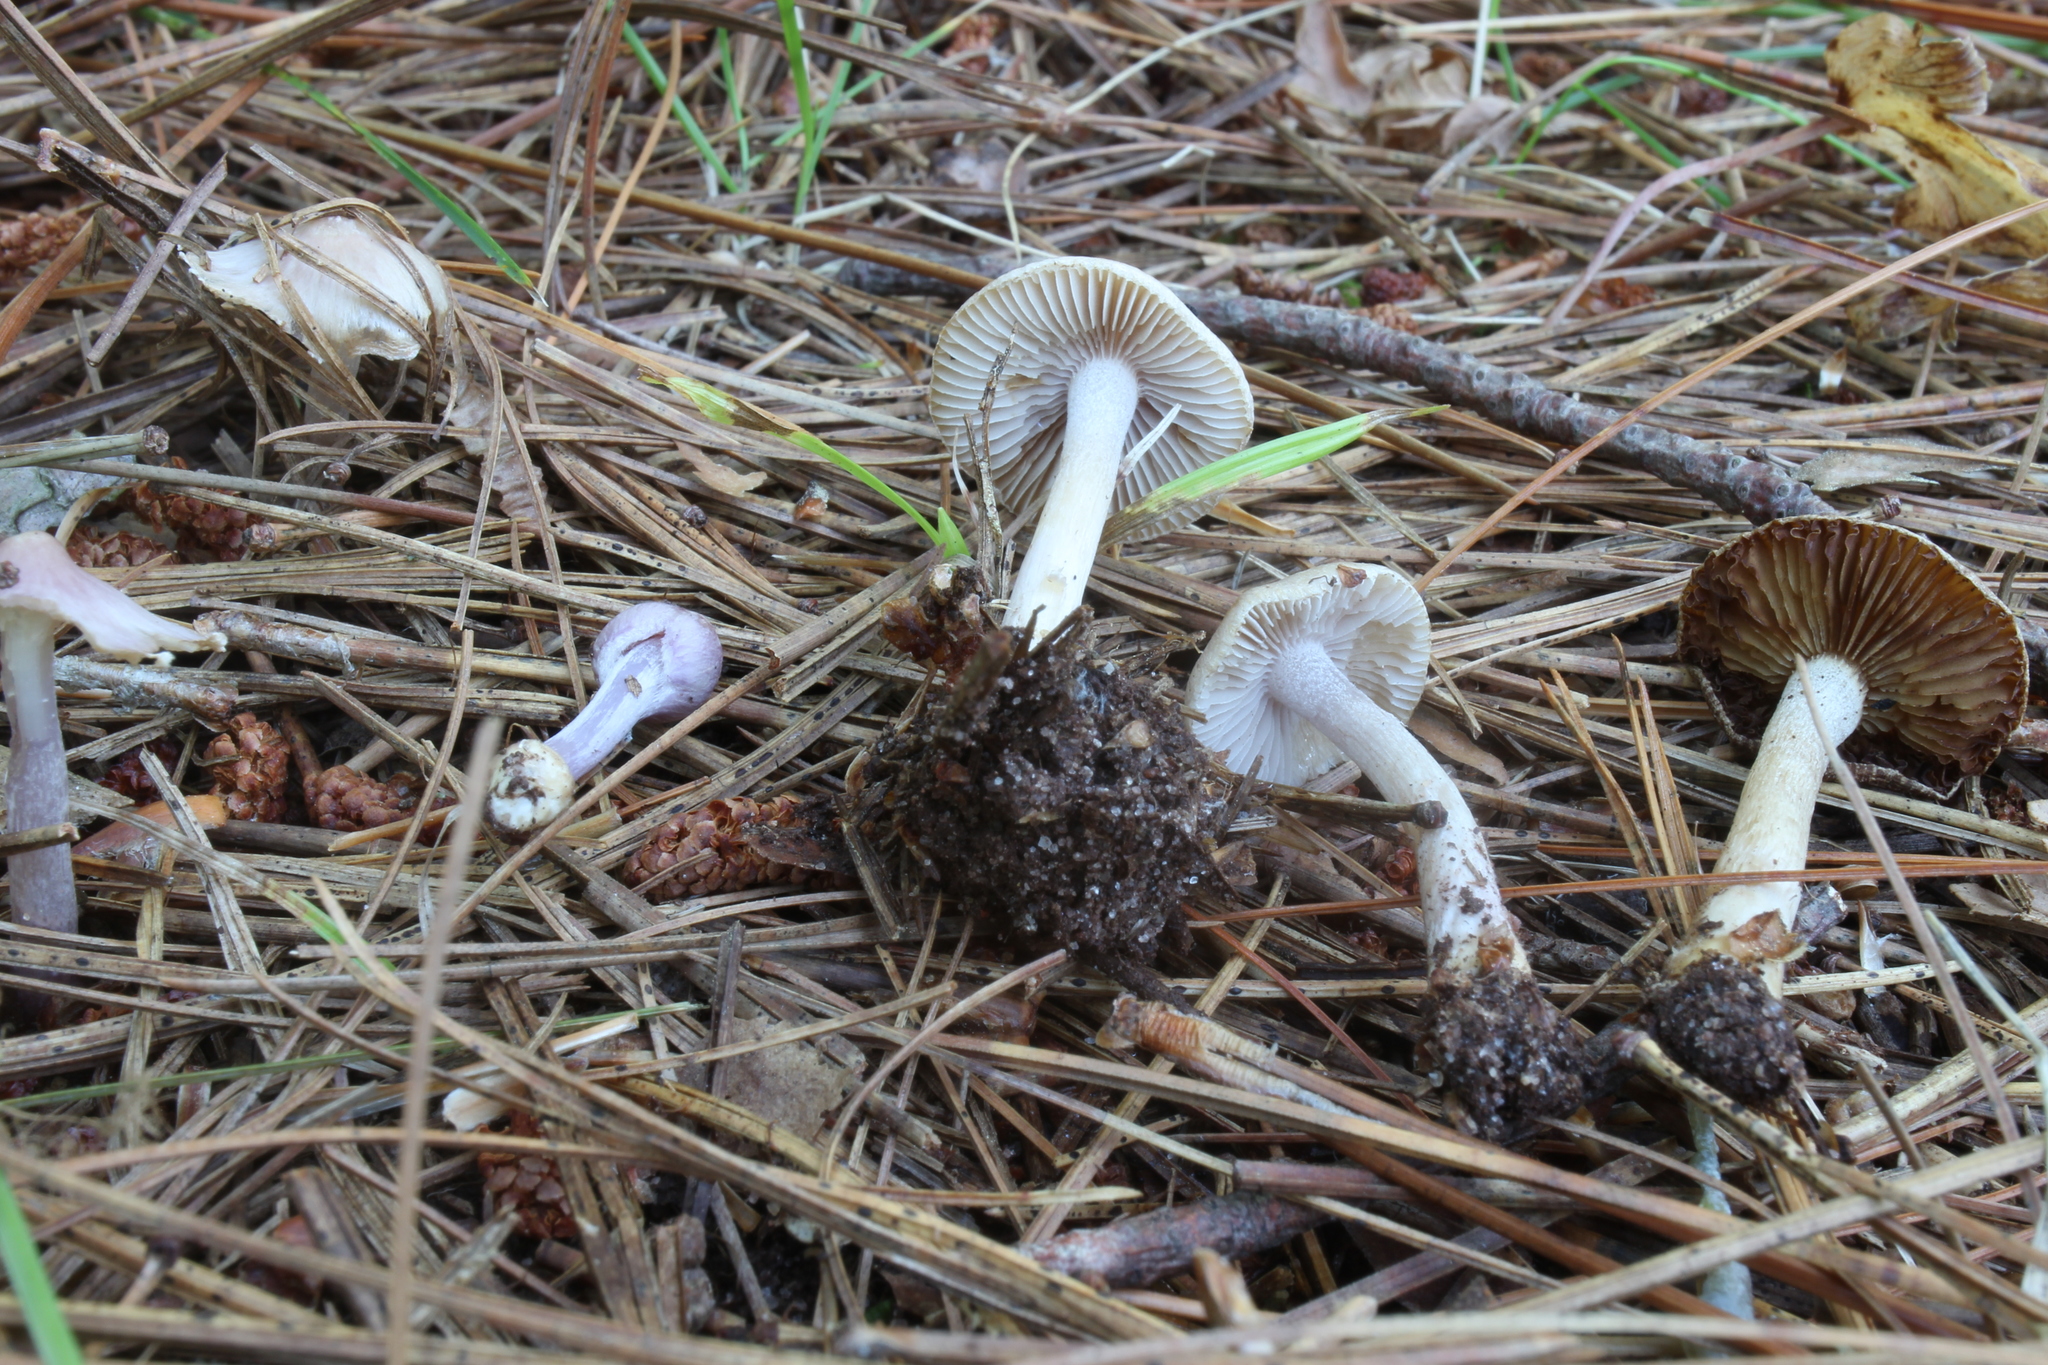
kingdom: Fungi
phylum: Basidiomycota
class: Agaricomycetes
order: Agaricales
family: Inocybaceae
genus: Inocybe
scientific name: Inocybe geophylla
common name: White fibrecap
